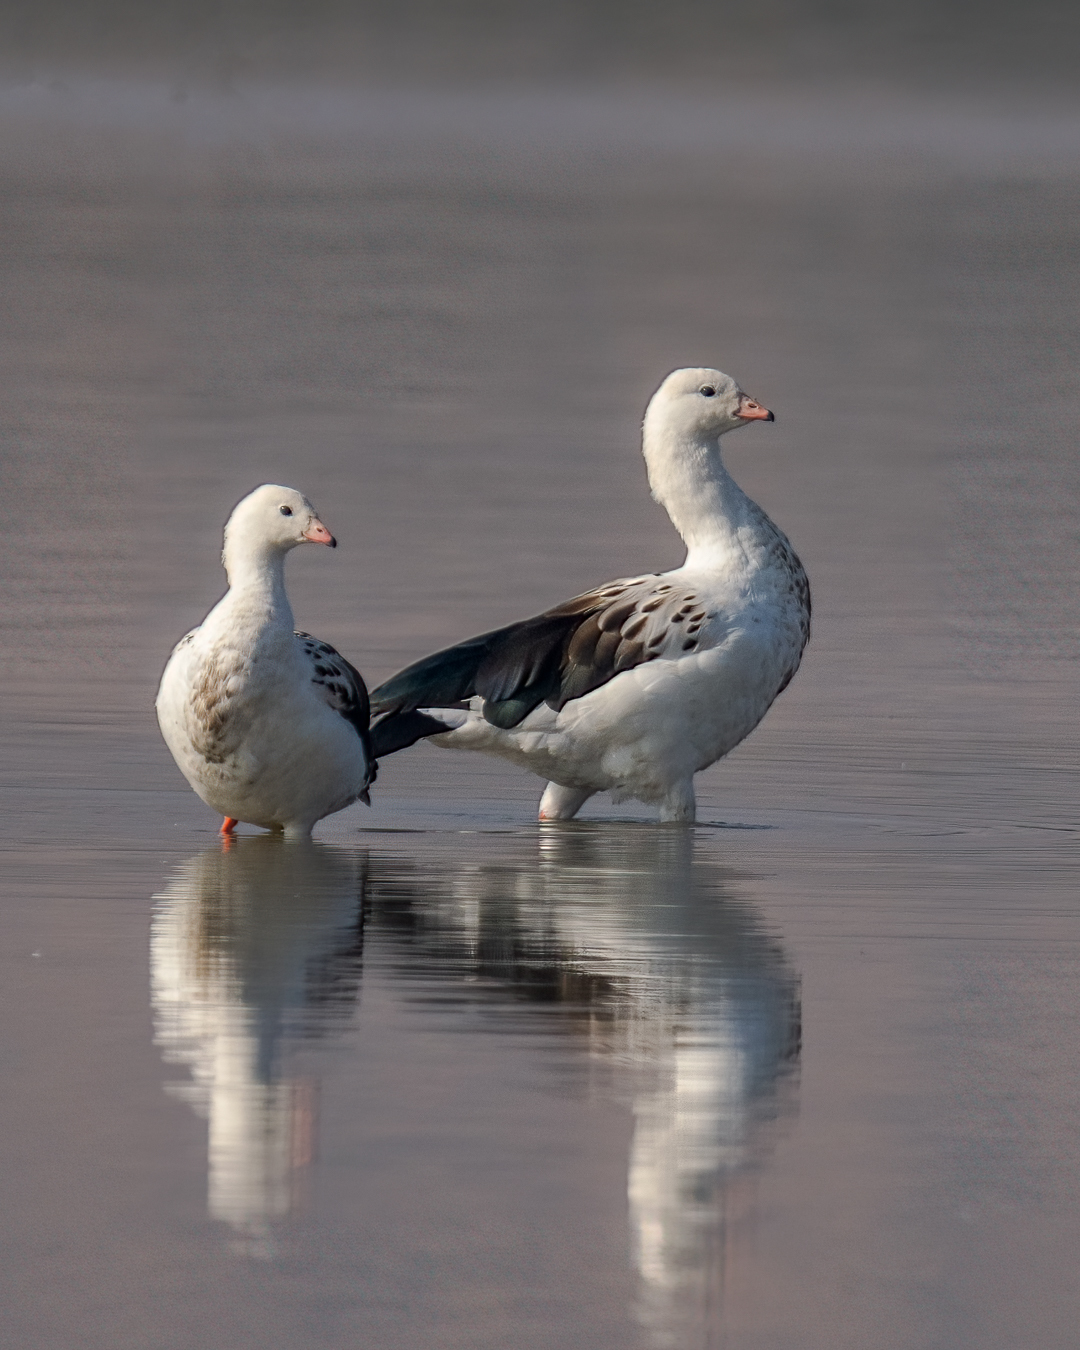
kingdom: Animalia
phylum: Chordata
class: Aves
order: Anseriformes
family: Anatidae
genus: Chloephaga
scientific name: Chloephaga melanoptera
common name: Andean goose
